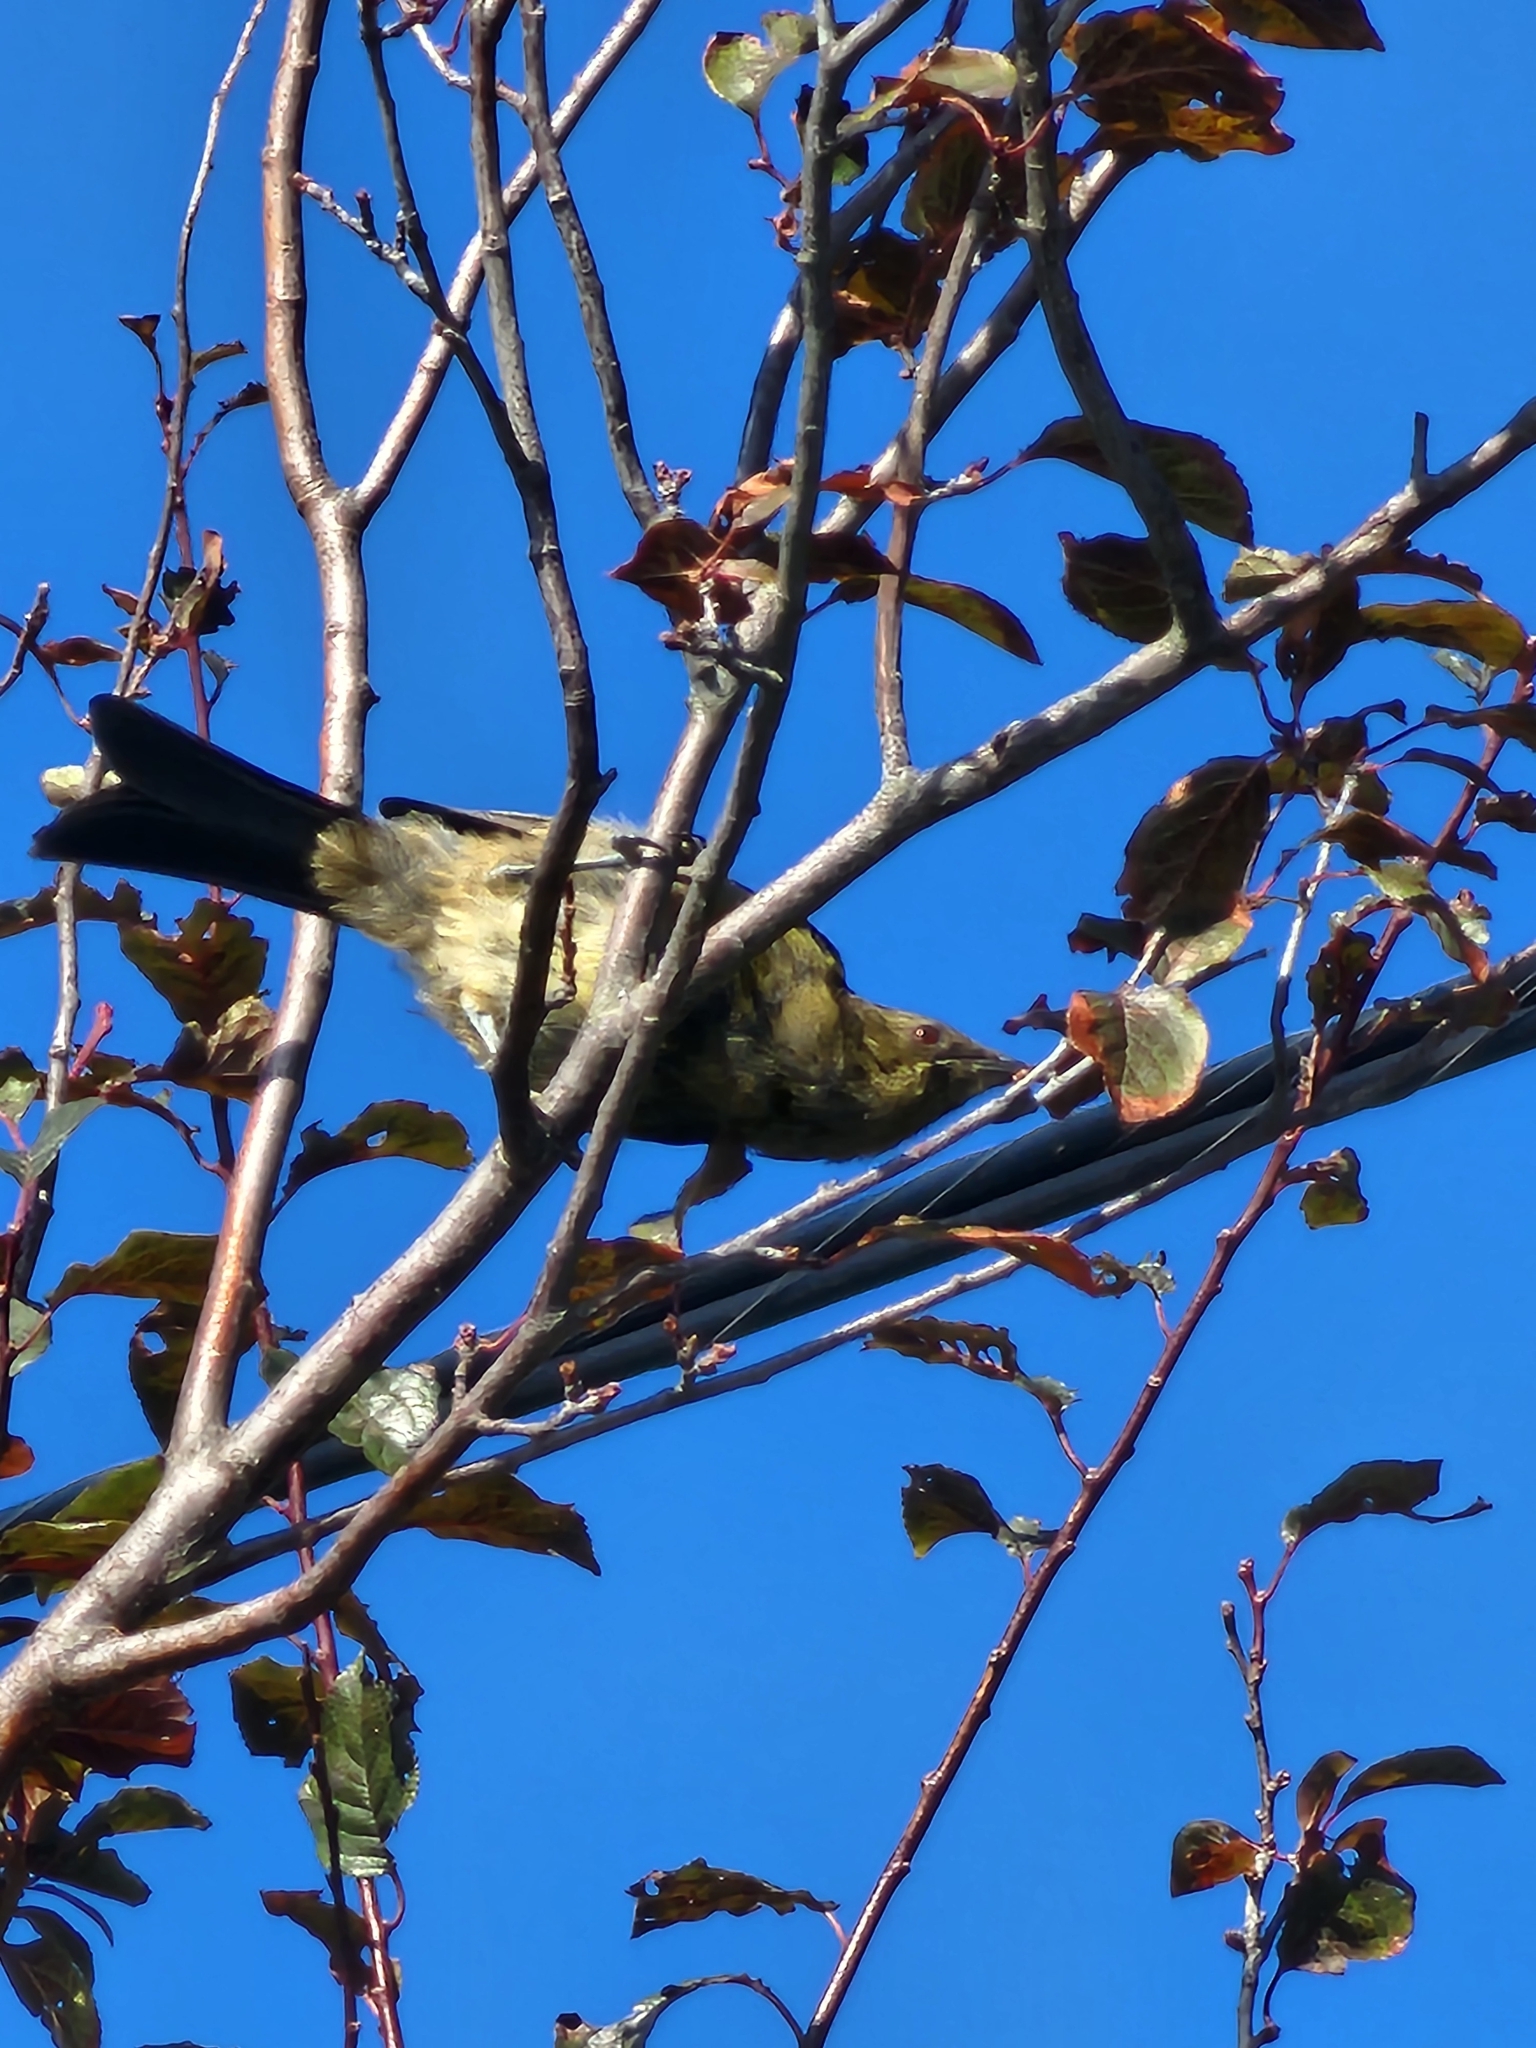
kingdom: Animalia
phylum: Chordata
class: Aves
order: Passeriformes
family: Meliphagidae
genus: Anthornis
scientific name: Anthornis melanura
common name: New zealand bellbird
